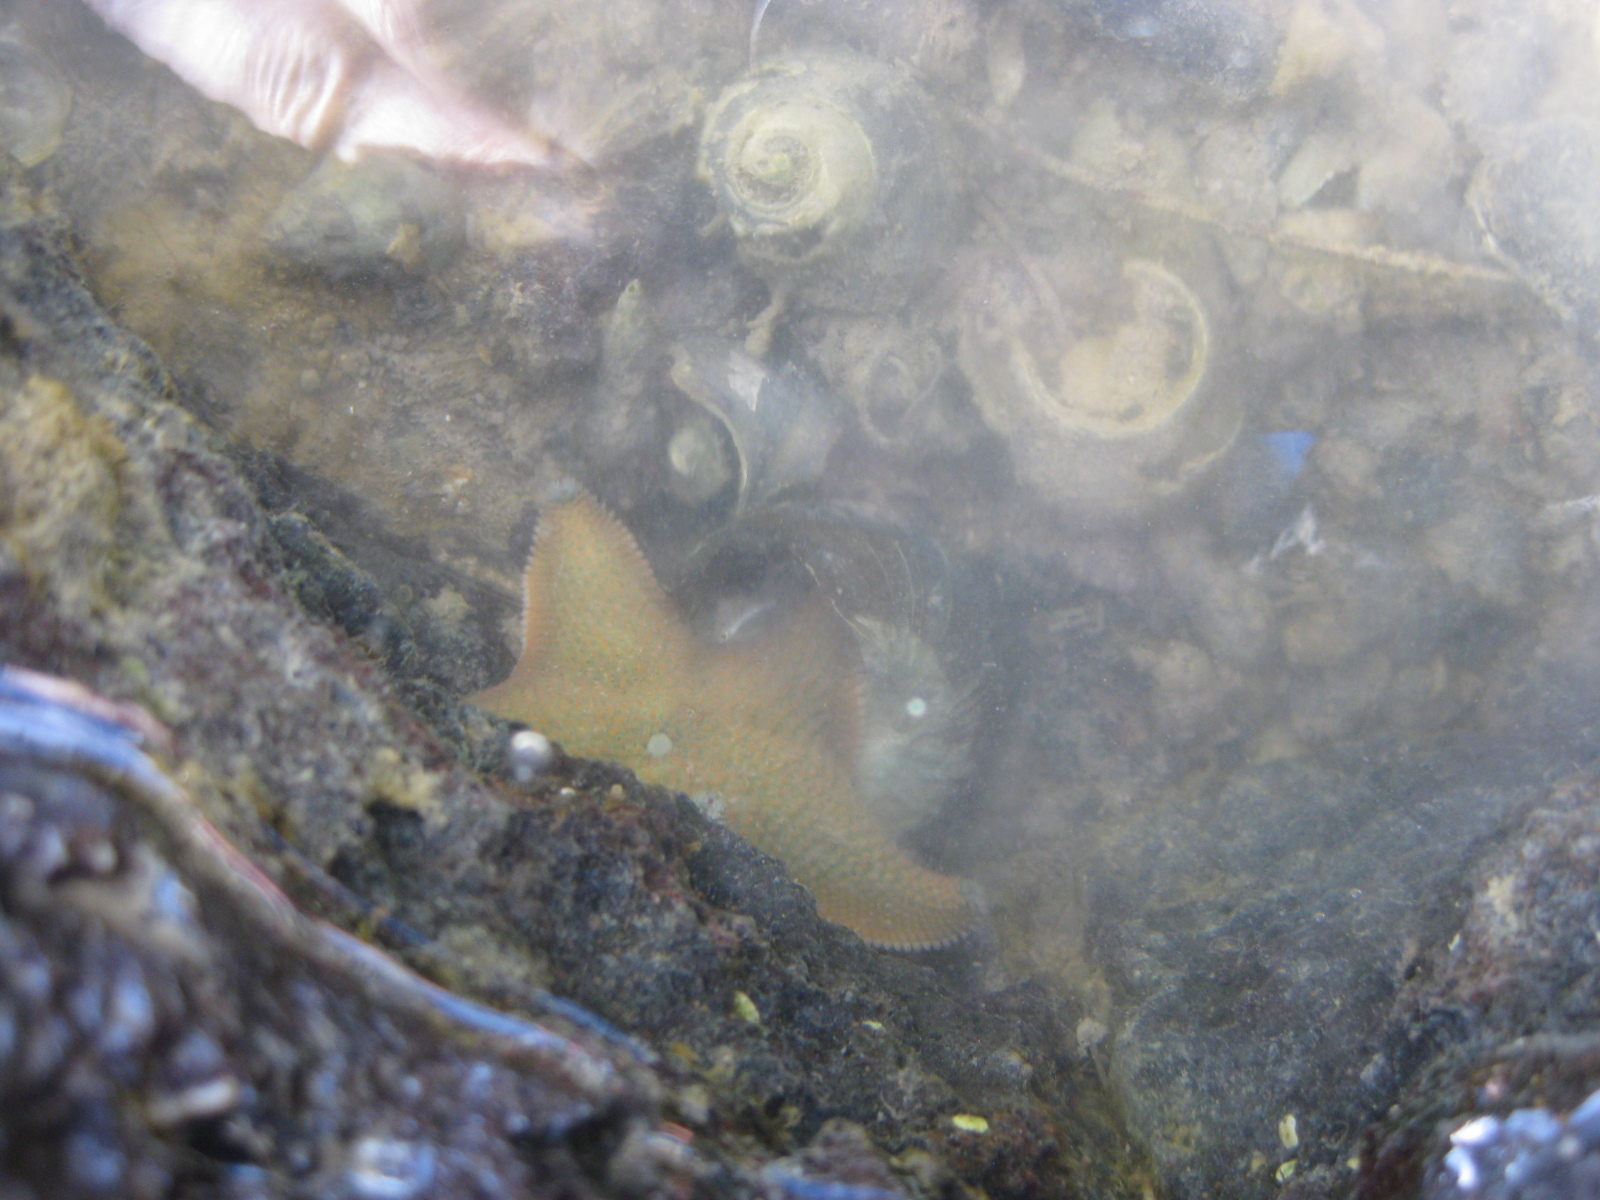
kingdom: Animalia
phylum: Echinodermata
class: Asteroidea
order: Valvatida
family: Asterinidae
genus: Patiriella
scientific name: Patiriella regularis
